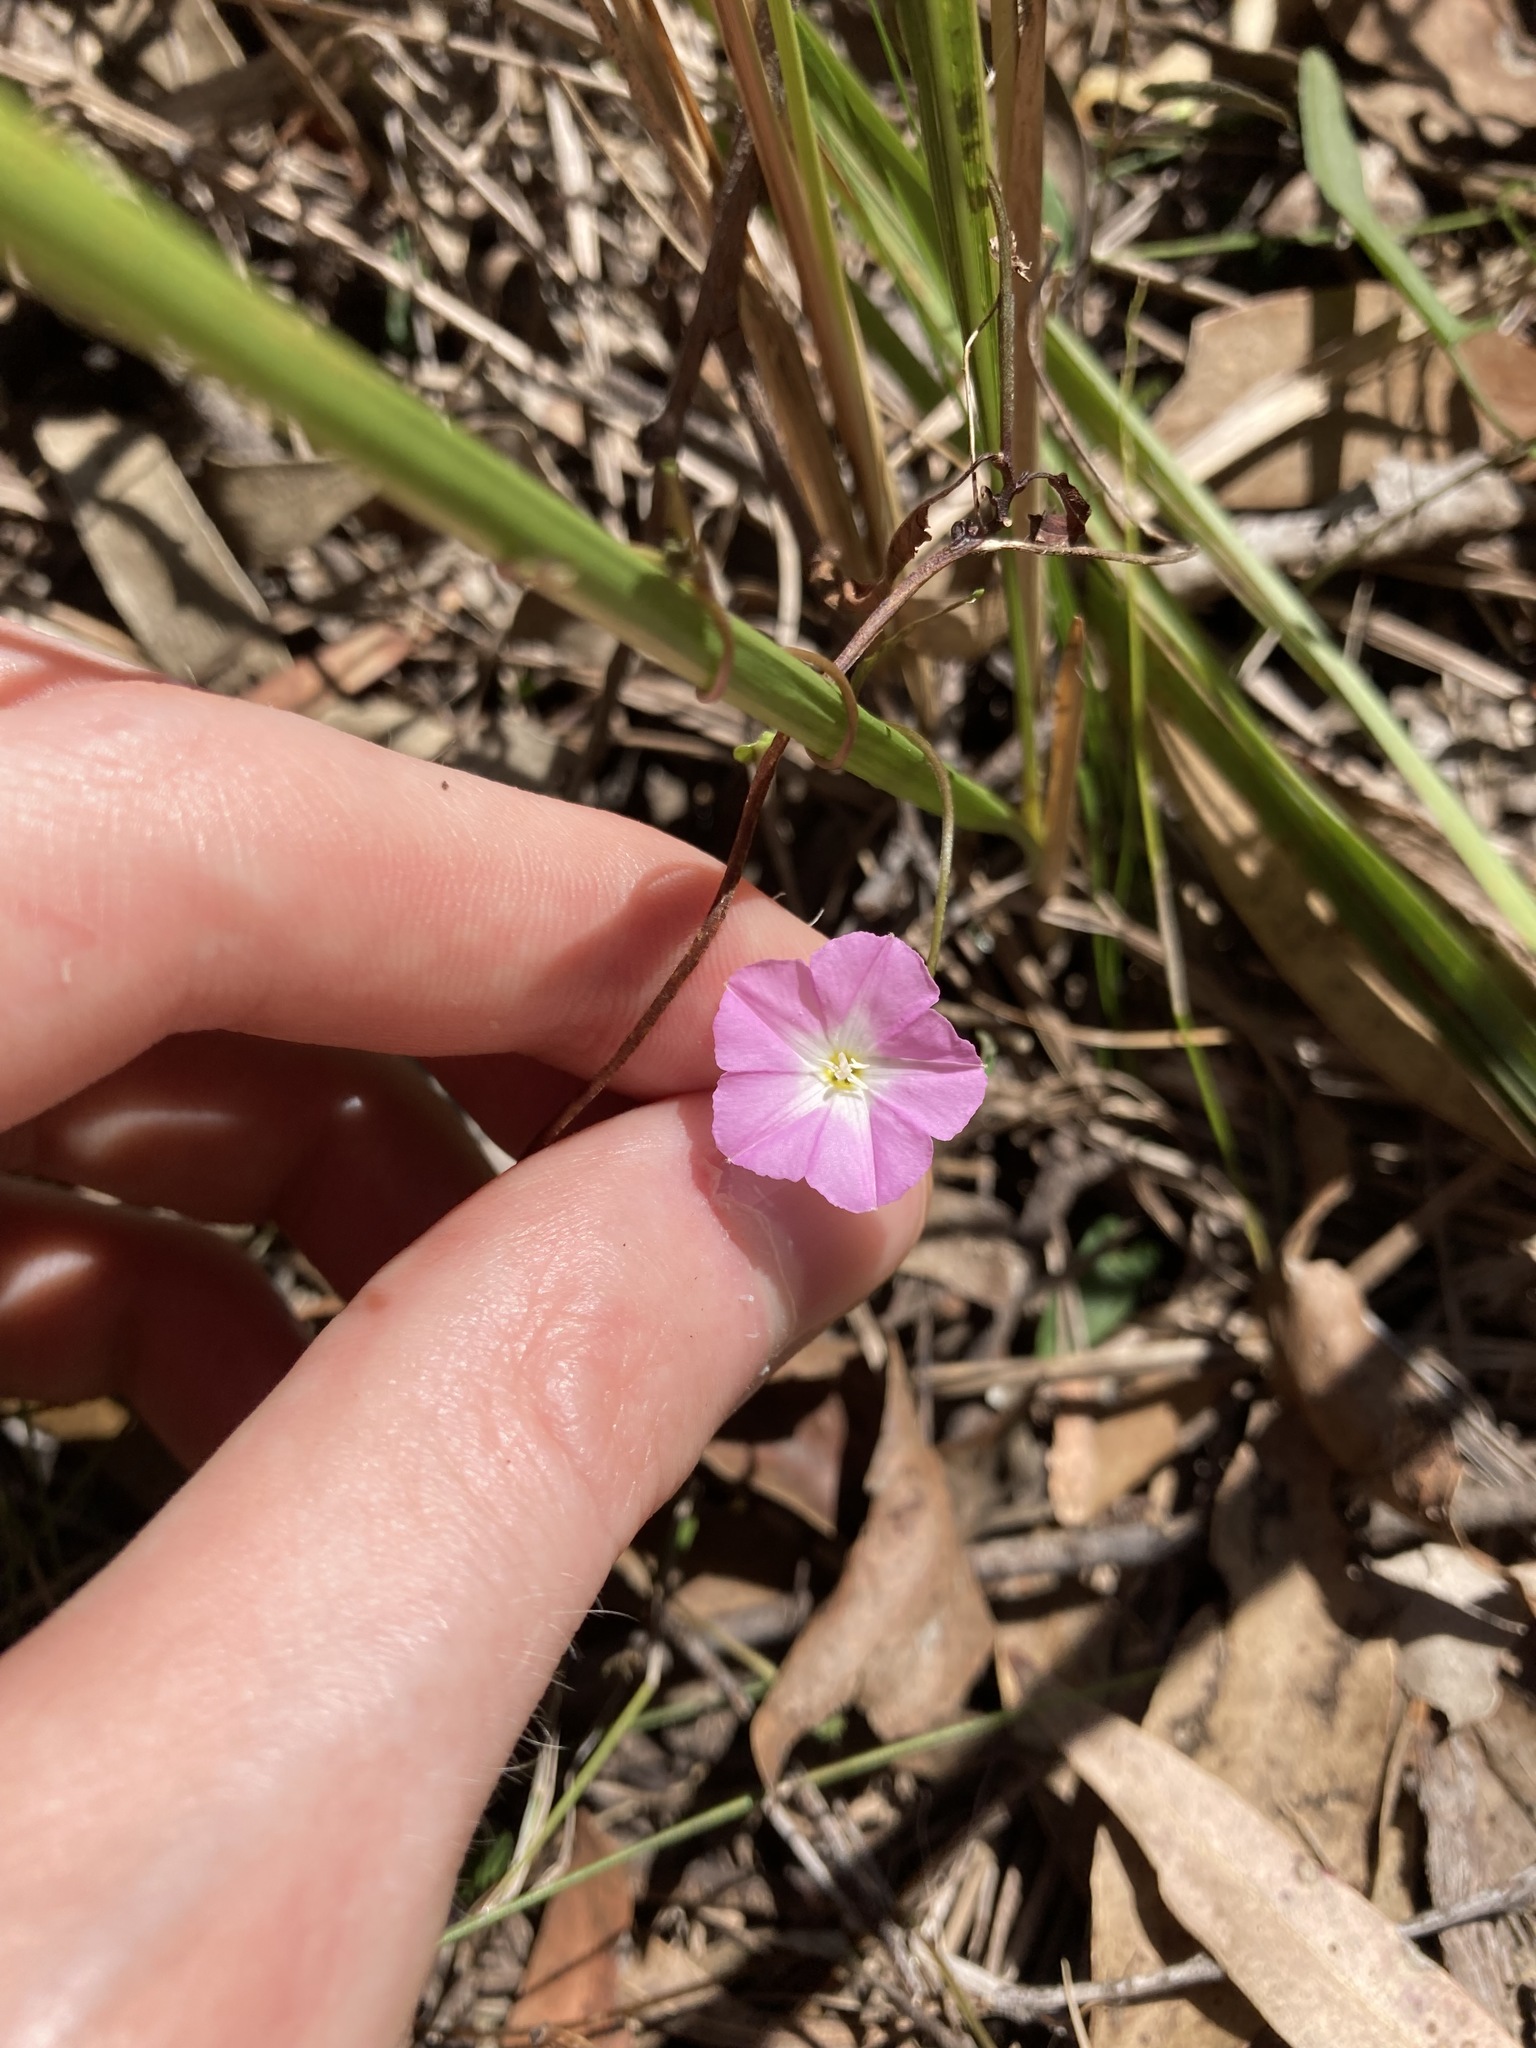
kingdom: Plantae
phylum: Tracheophyta
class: Magnoliopsida
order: Solanales
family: Convolvulaceae
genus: Polymeria
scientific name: Polymeria calycina
